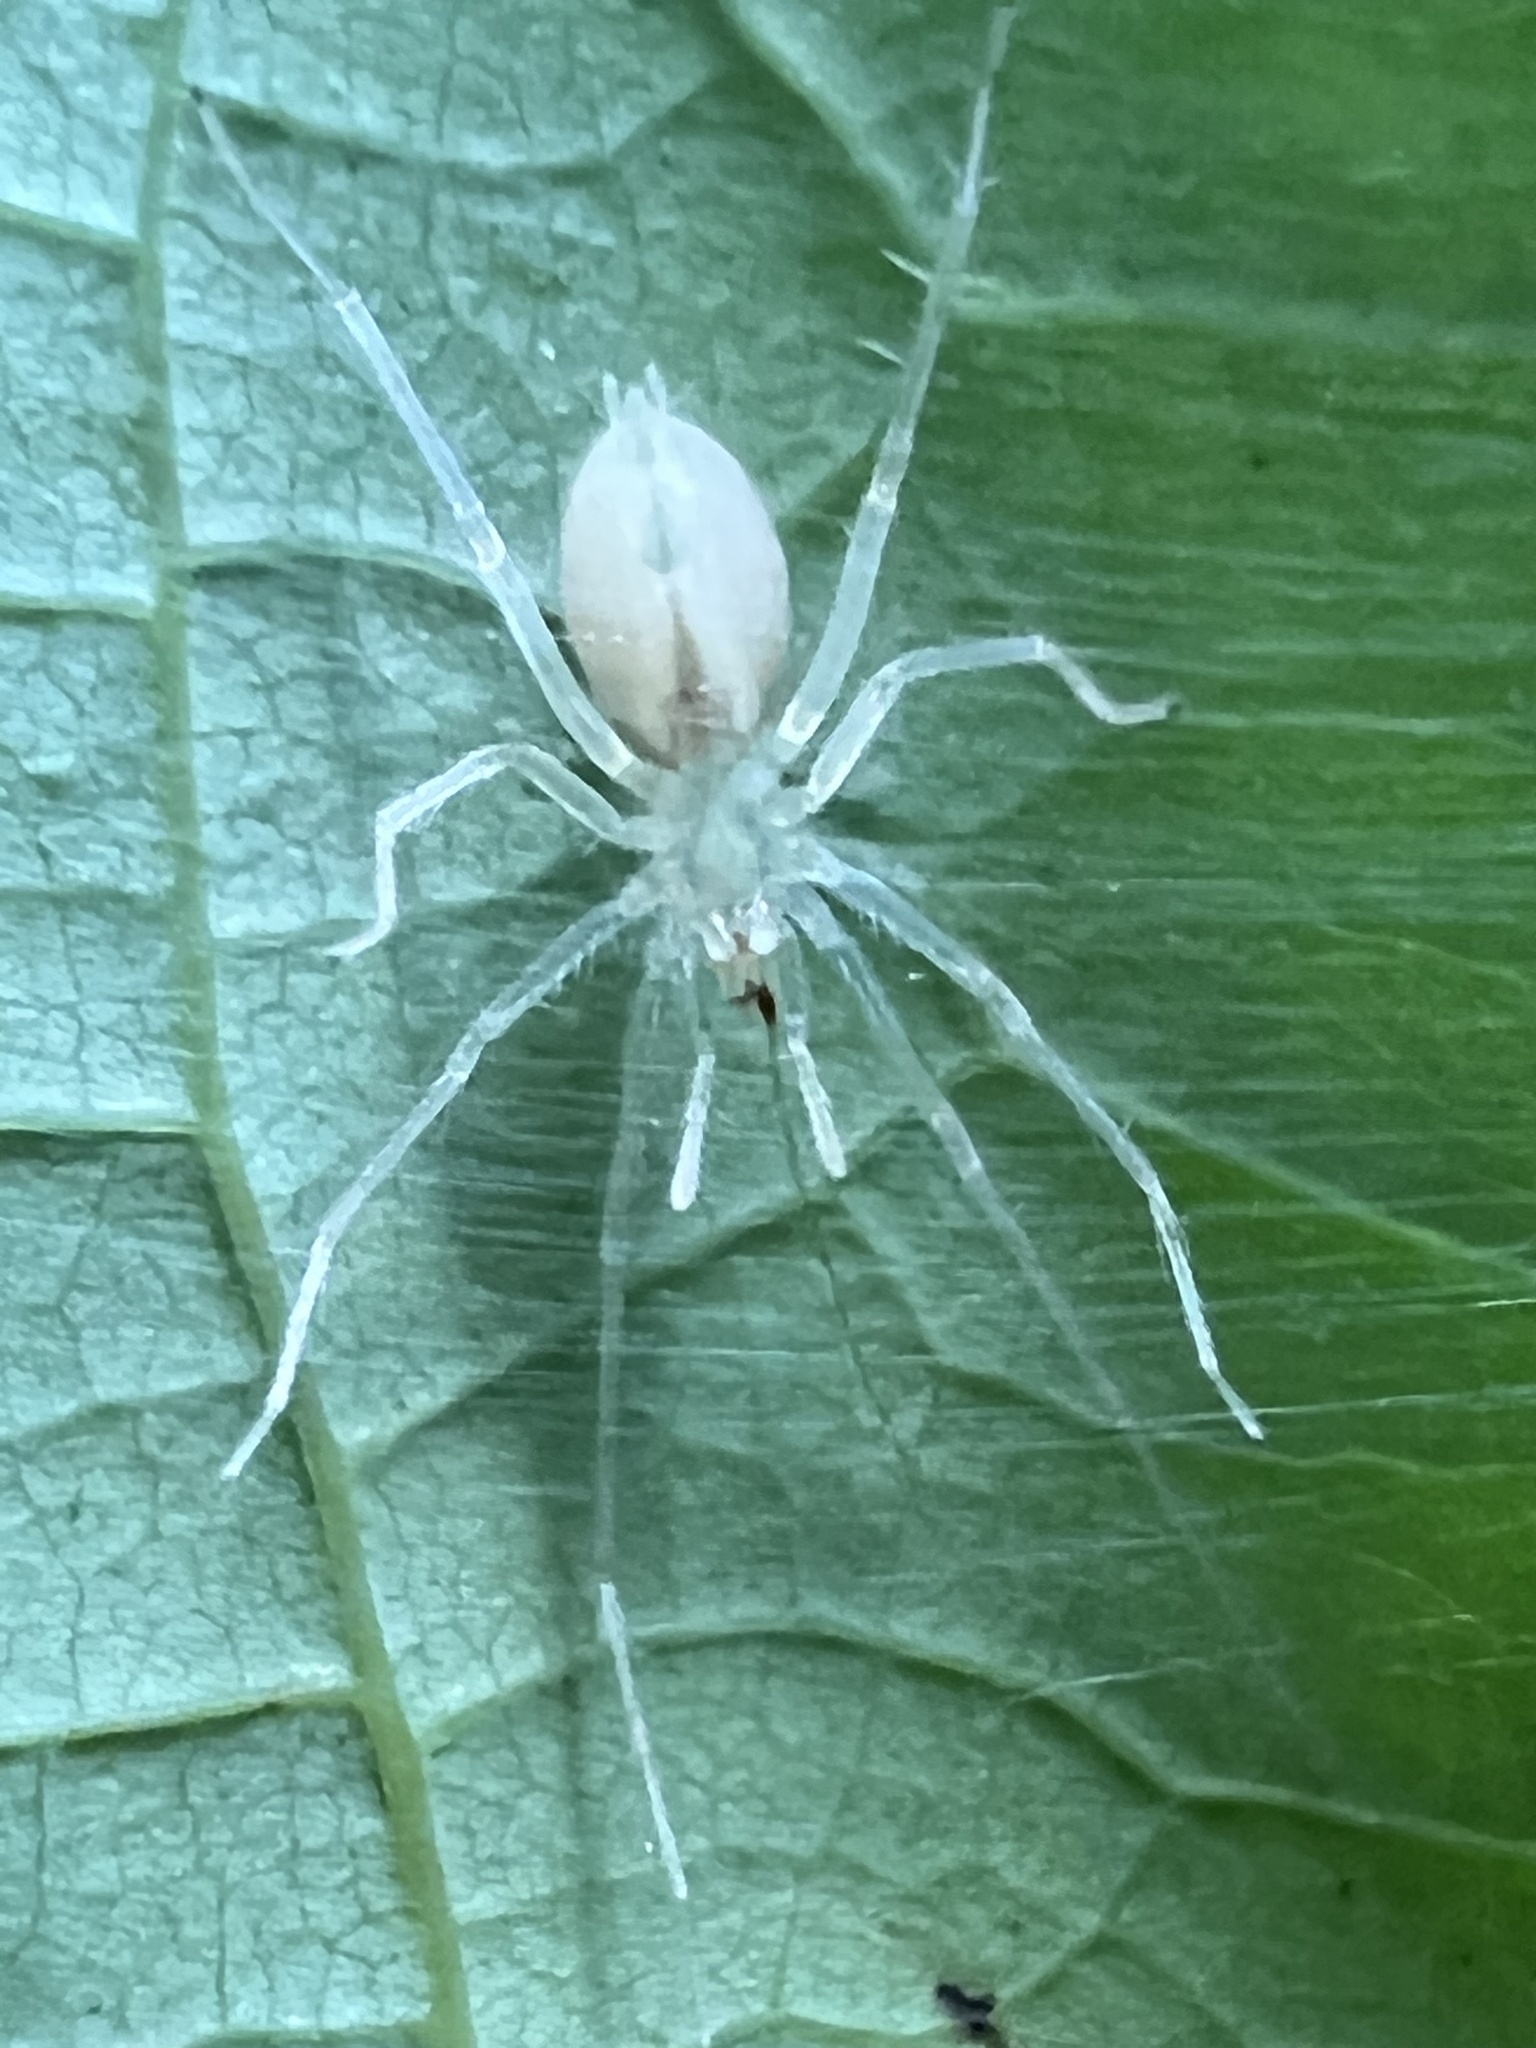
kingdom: Animalia
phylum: Arthropoda
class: Arachnida
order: Araneae
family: Anyphaenidae
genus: Wulfila
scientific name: Wulfila albens
